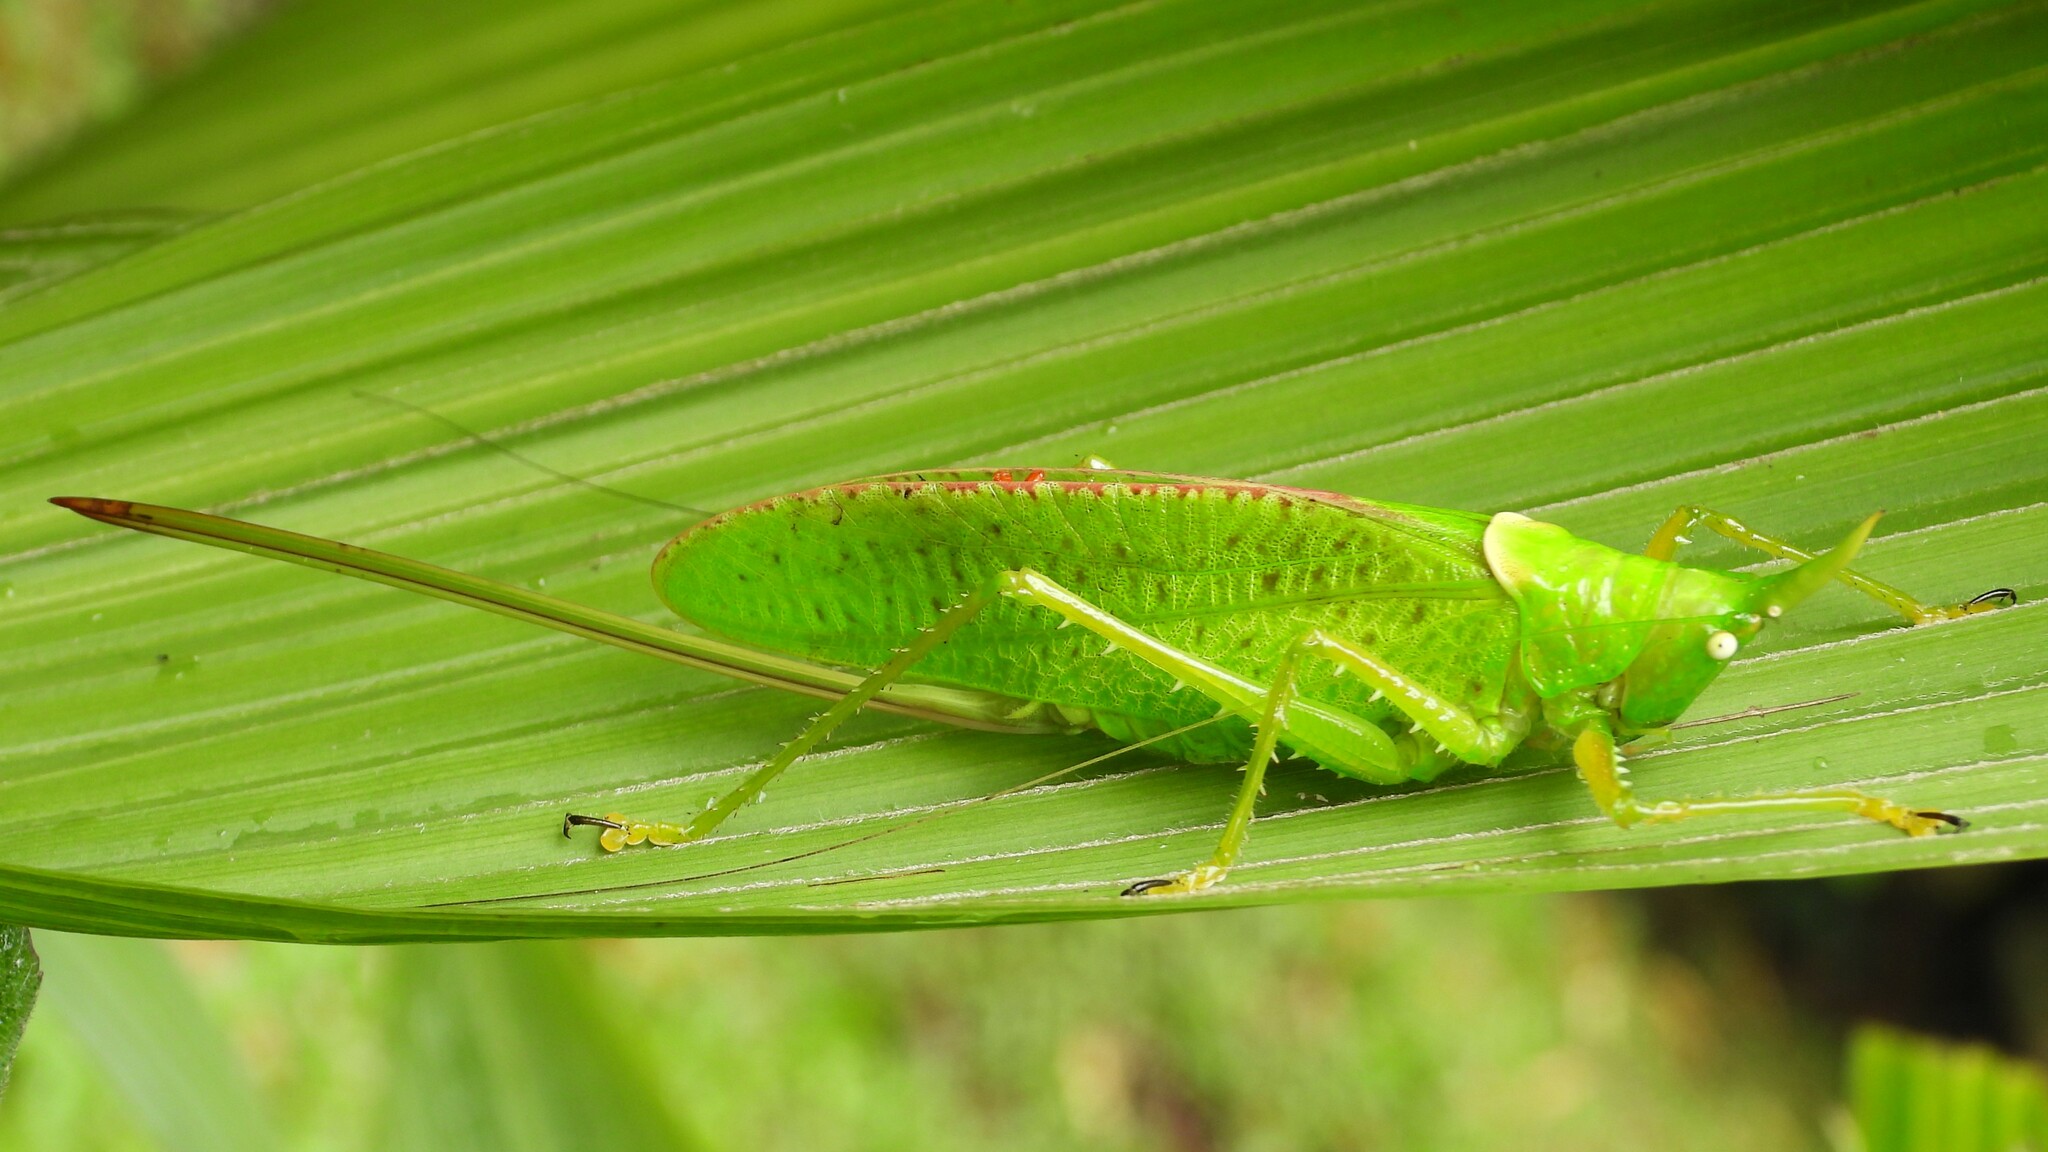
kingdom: Animalia
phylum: Arthropoda
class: Insecta
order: Orthoptera
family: Tettigoniidae
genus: Copiphora
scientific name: Copiphora rhinoceros
